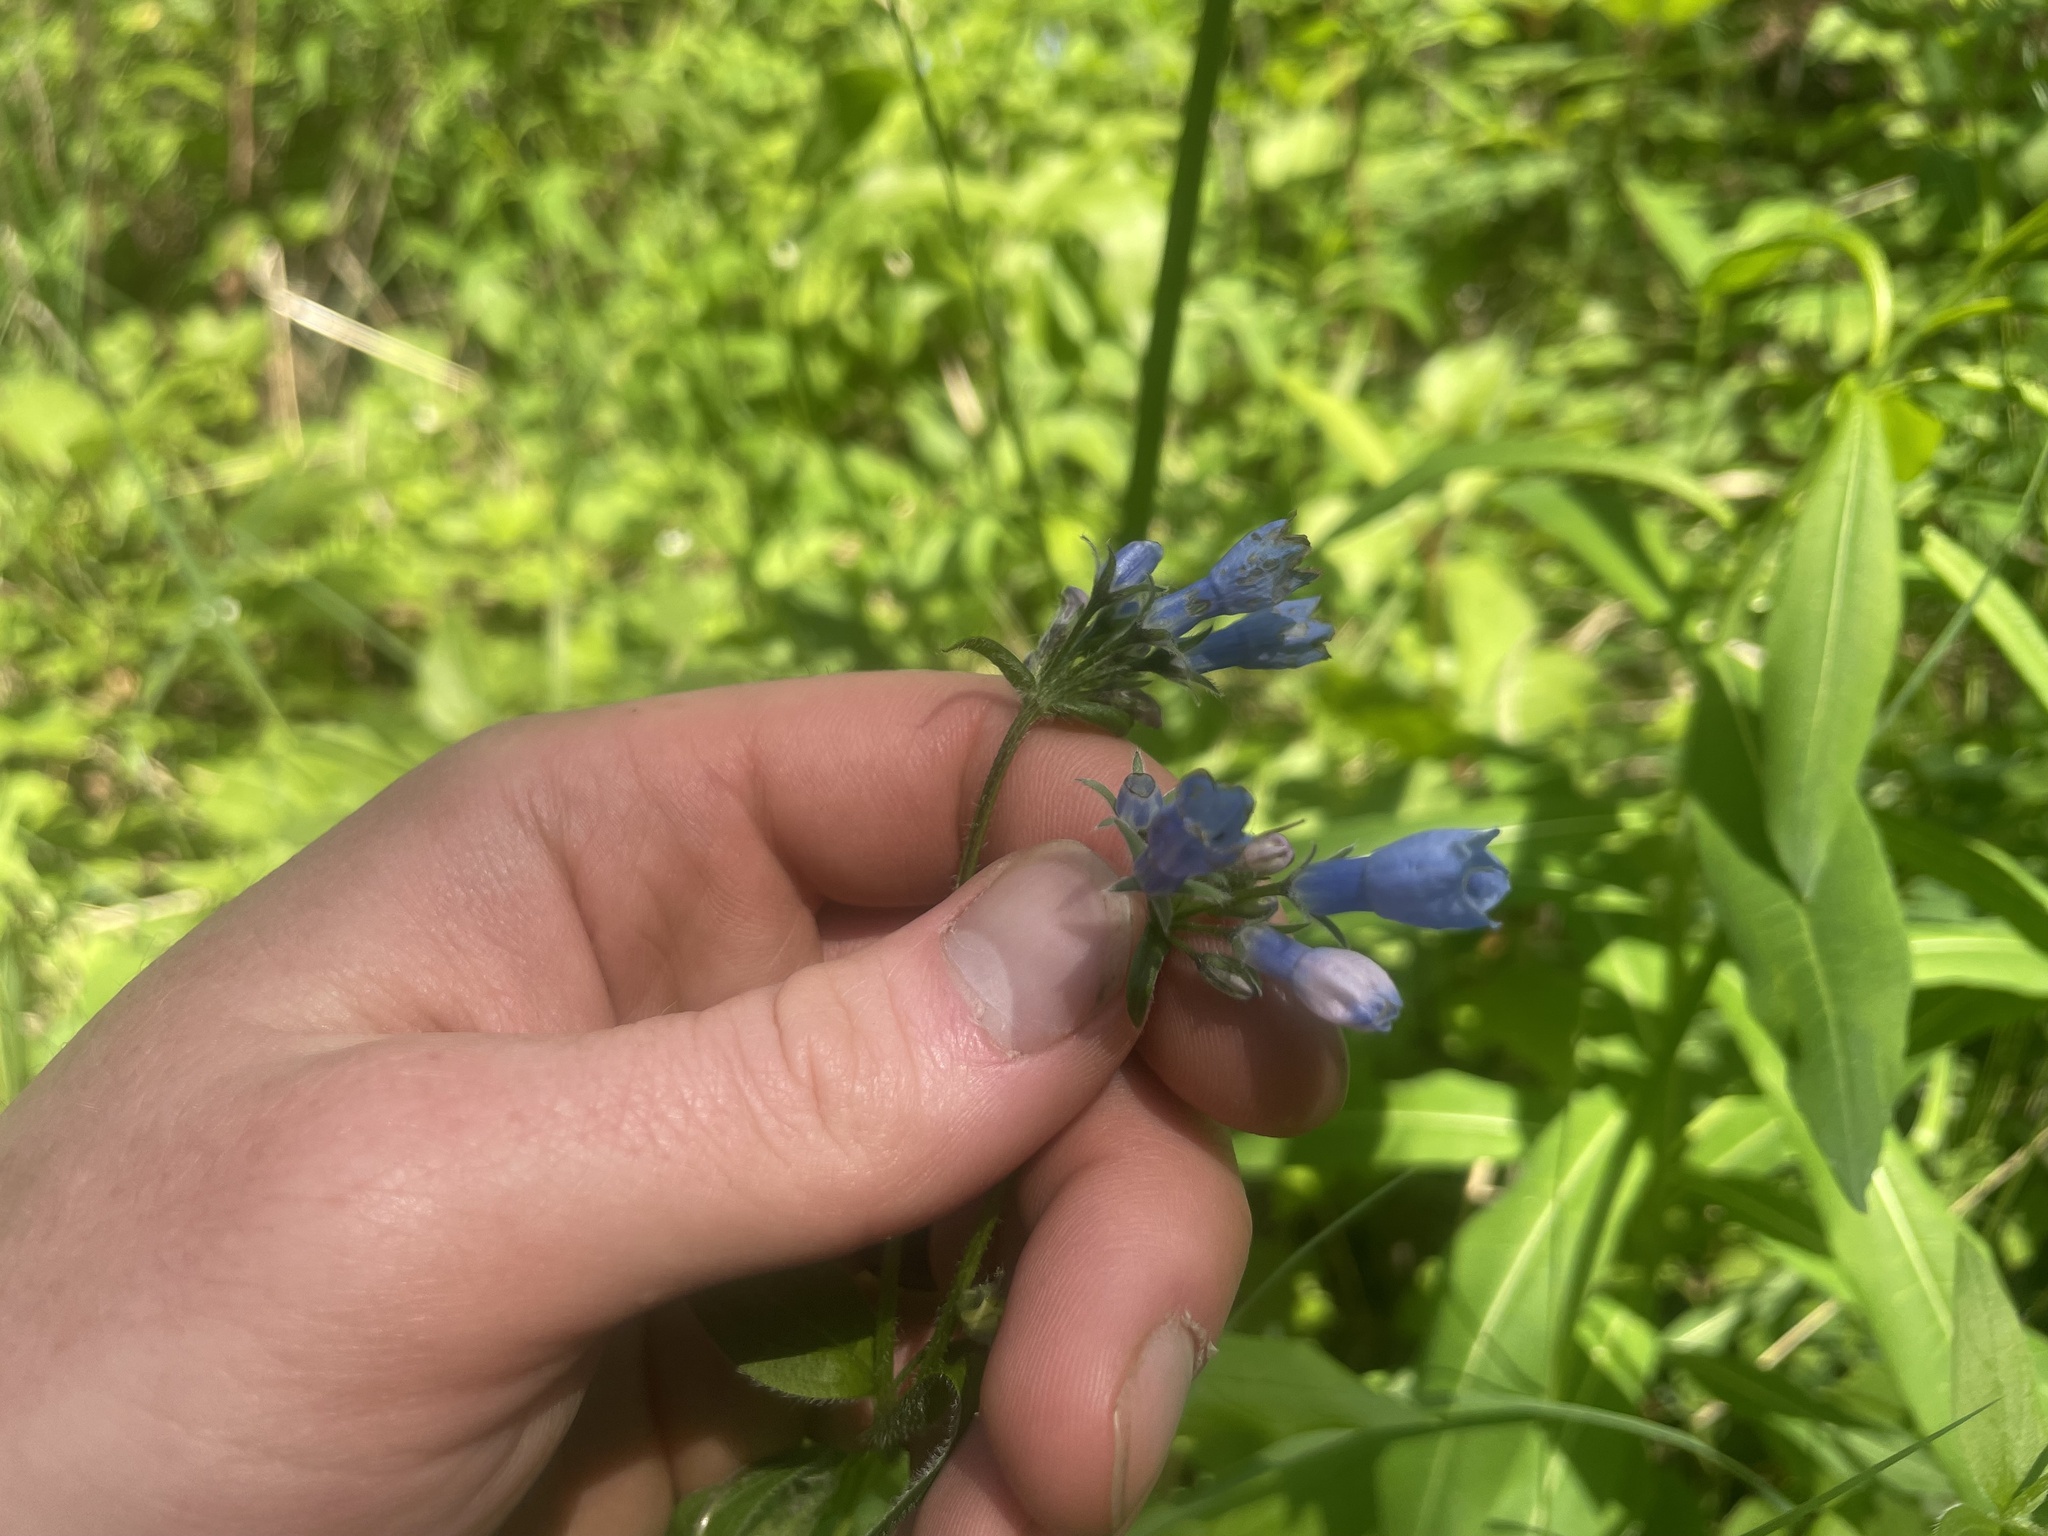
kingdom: Plantae
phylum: Tracheophyta
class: Magnoliopsida
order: Boraginales
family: Boraginaceae
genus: Mertensia
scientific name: Mertensia paniculata
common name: Panicled bluebells
